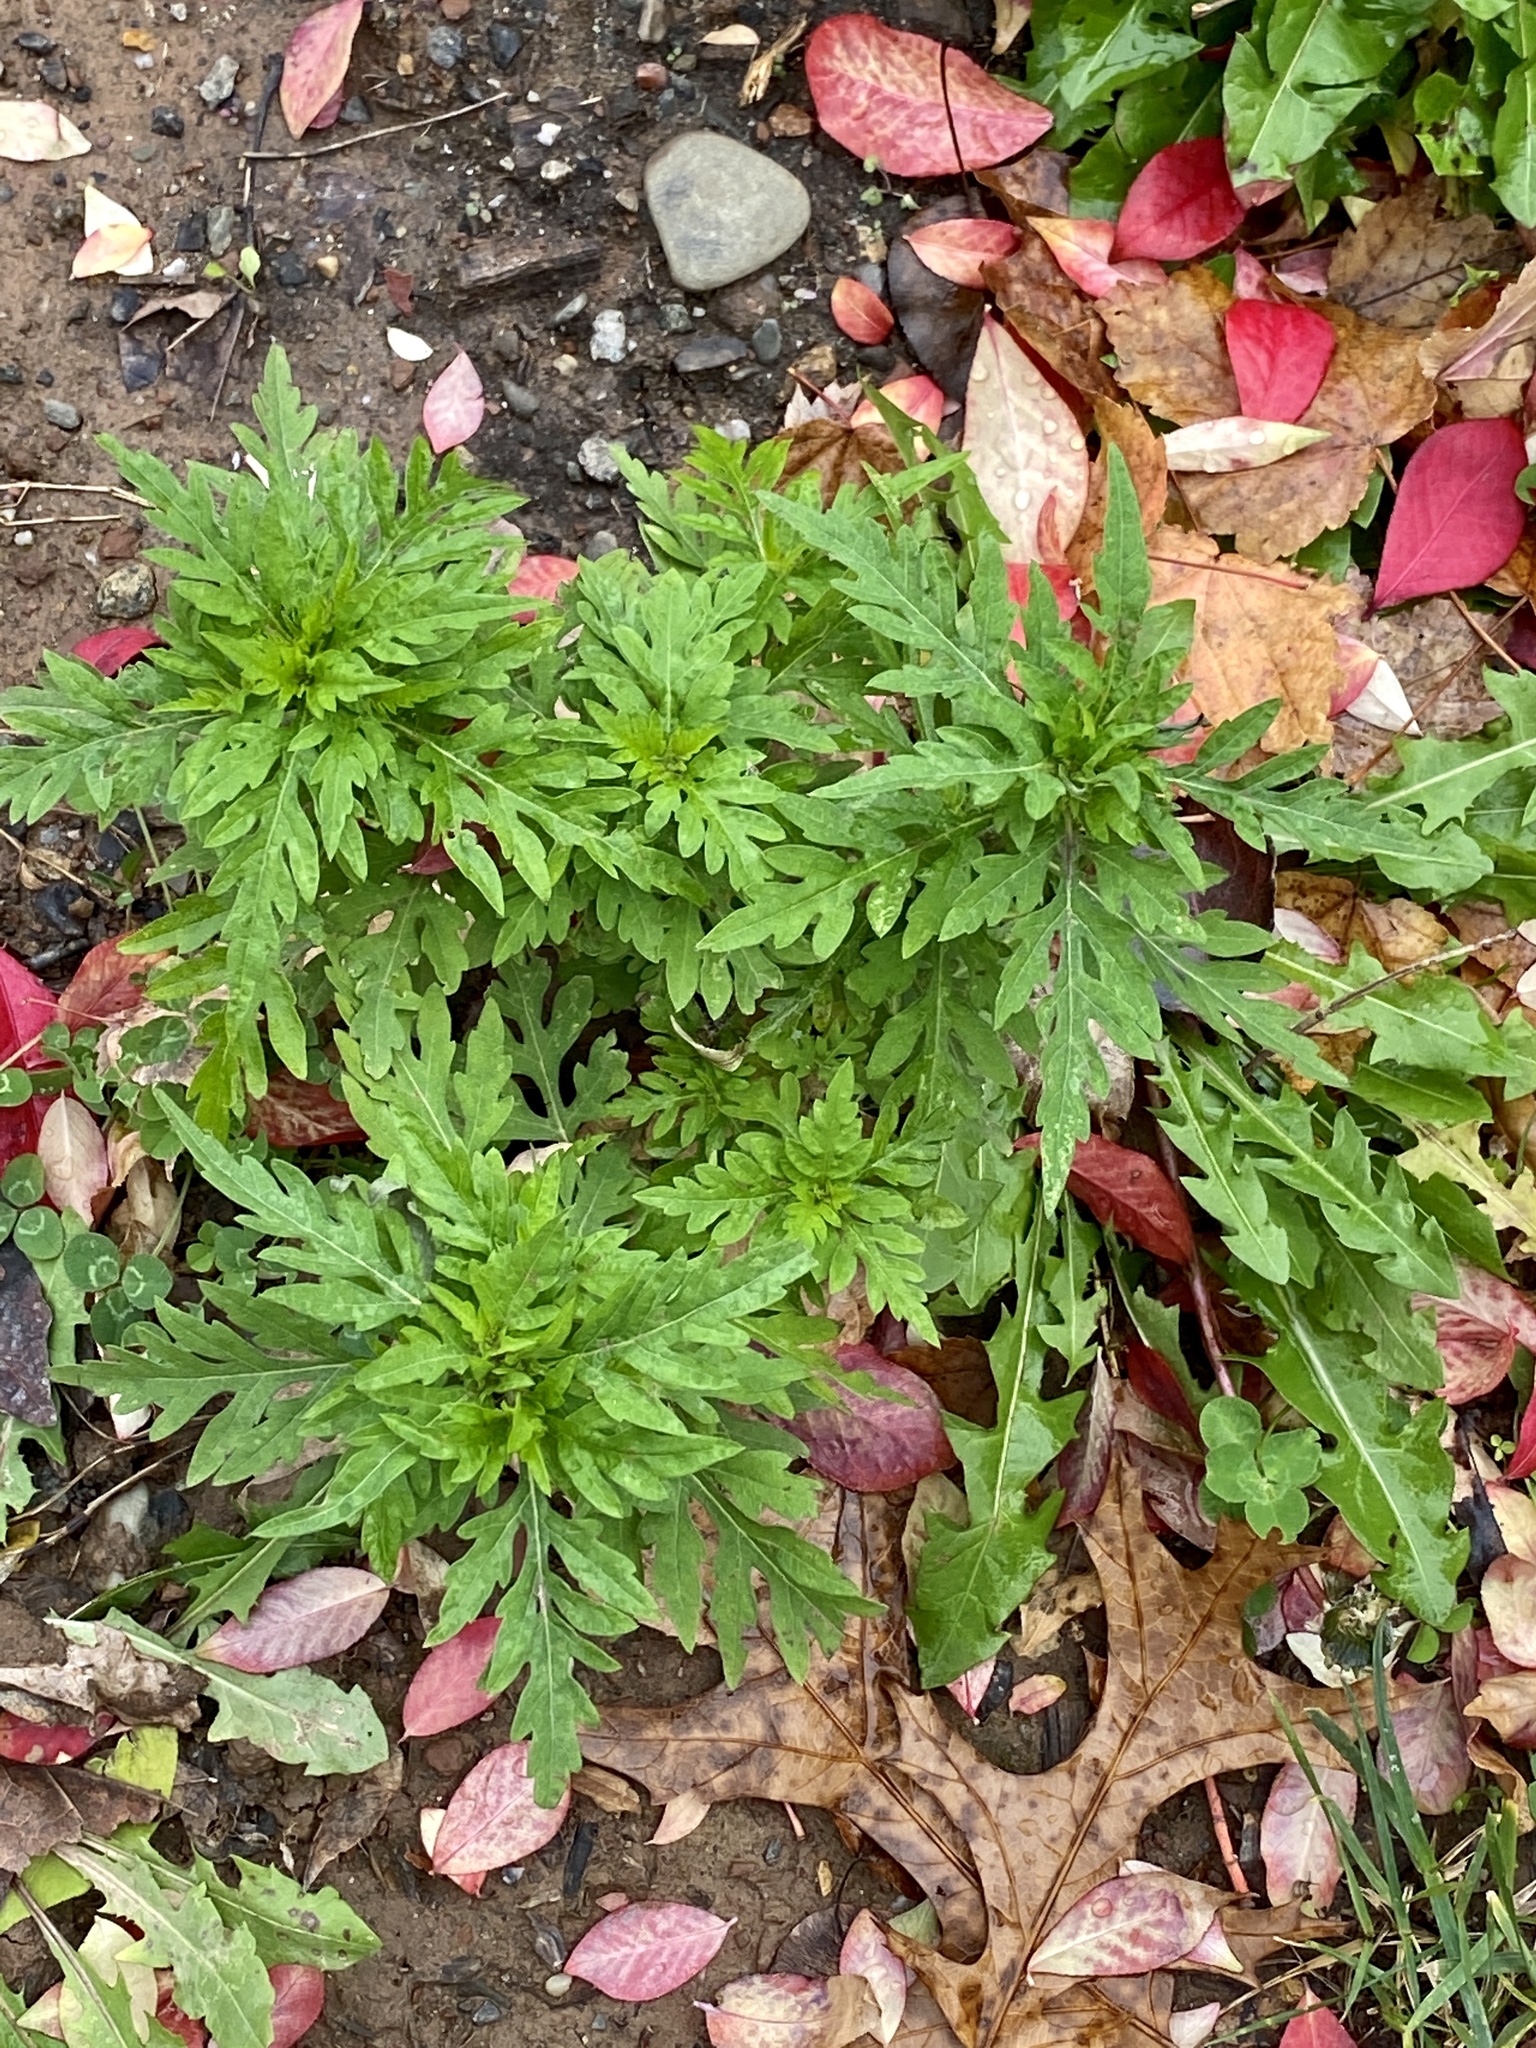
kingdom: Plantae
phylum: Tracheophyta
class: Magnoliopsida
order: Asterales
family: Asteraceae
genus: Ambrosia
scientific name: Ambrosia artemisiifolia
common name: Annual ragweed
